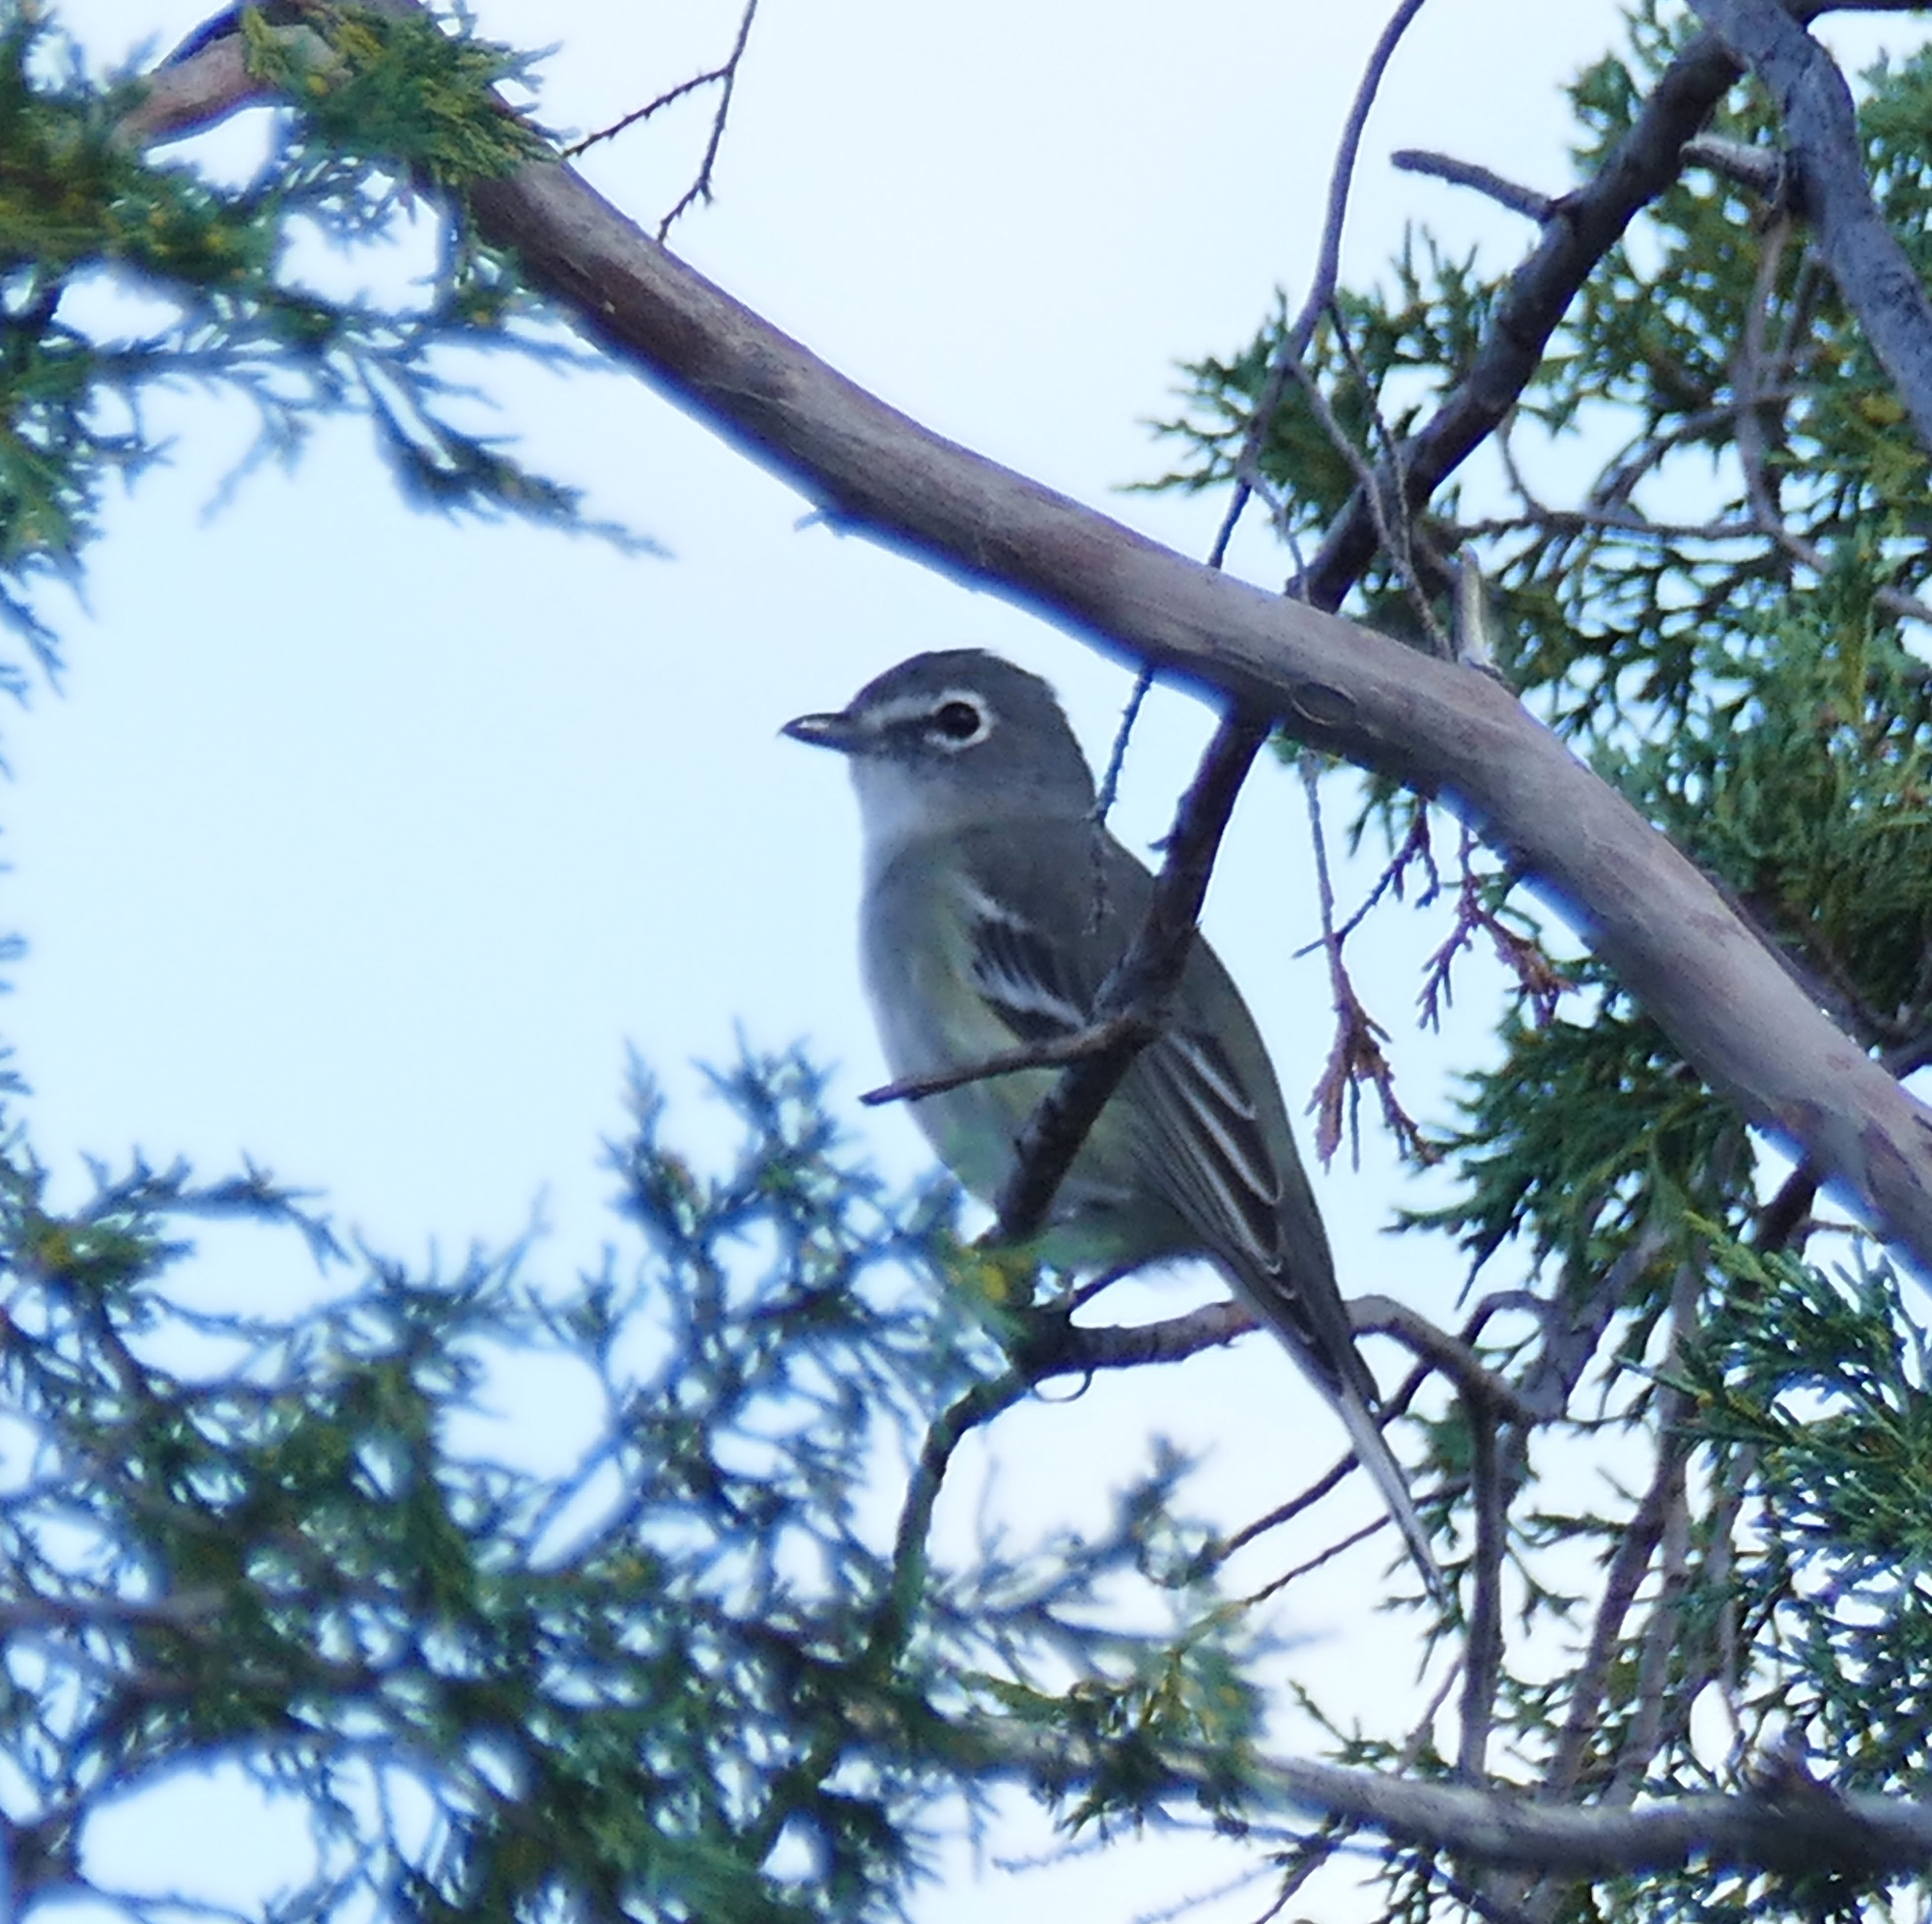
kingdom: Animalia
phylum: Chordata
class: Aves
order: Passeriformes
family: Vireonidae
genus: Vireo
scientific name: Vireo plumbeus
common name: Plumbeous vireo
